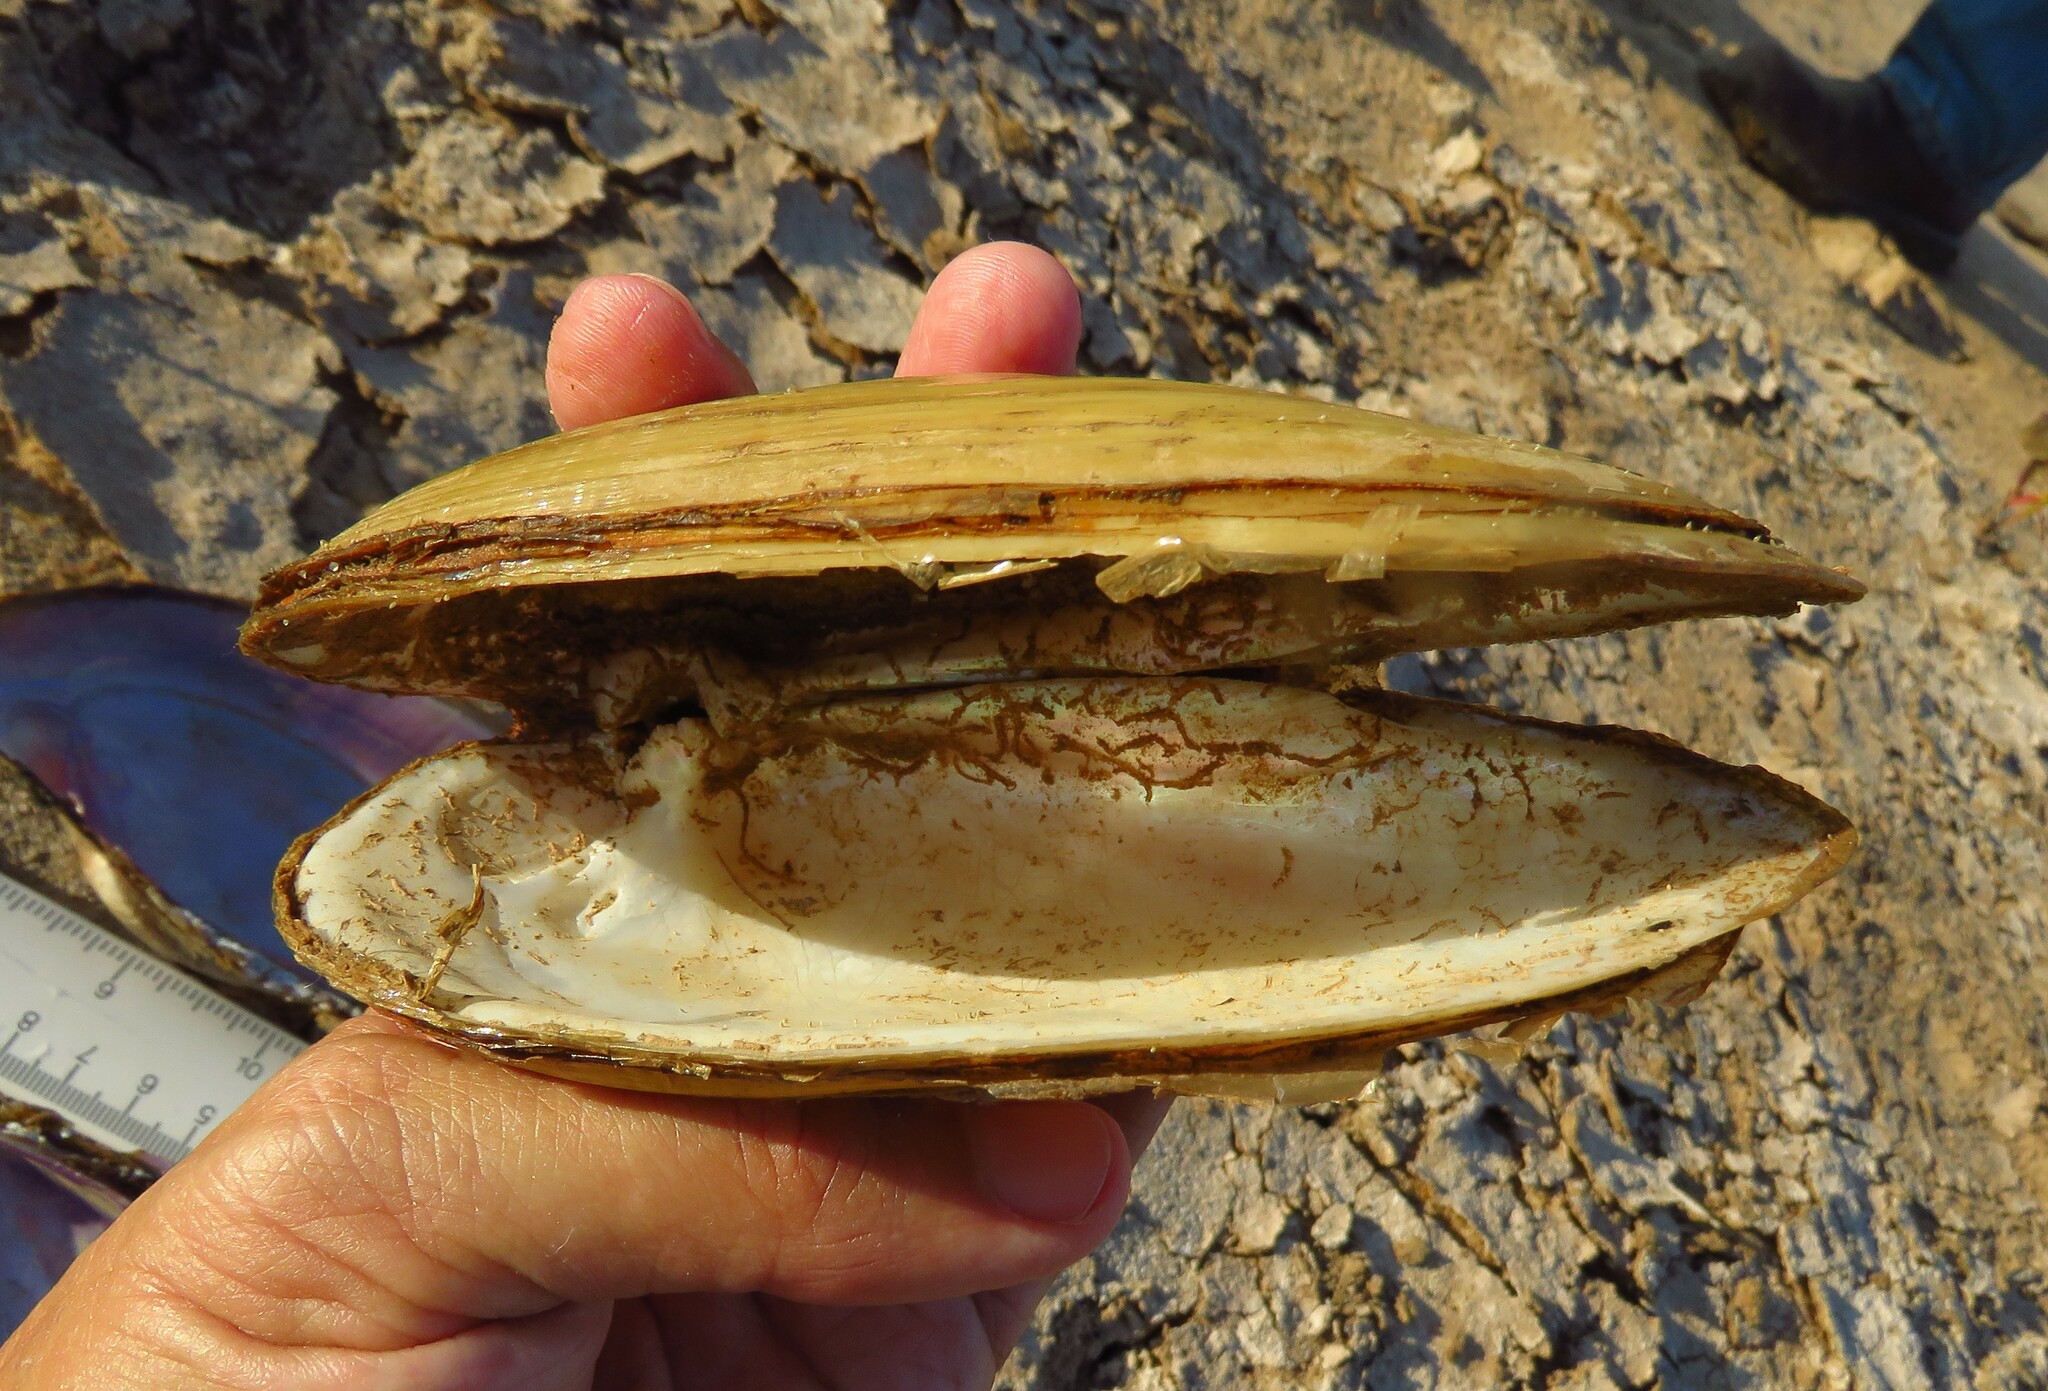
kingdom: Animalia
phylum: Mollusca
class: Bivalvia
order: Unionida
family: Unionidae
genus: Lampsilis
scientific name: Lampsilis teres
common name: Yellow sandshell
